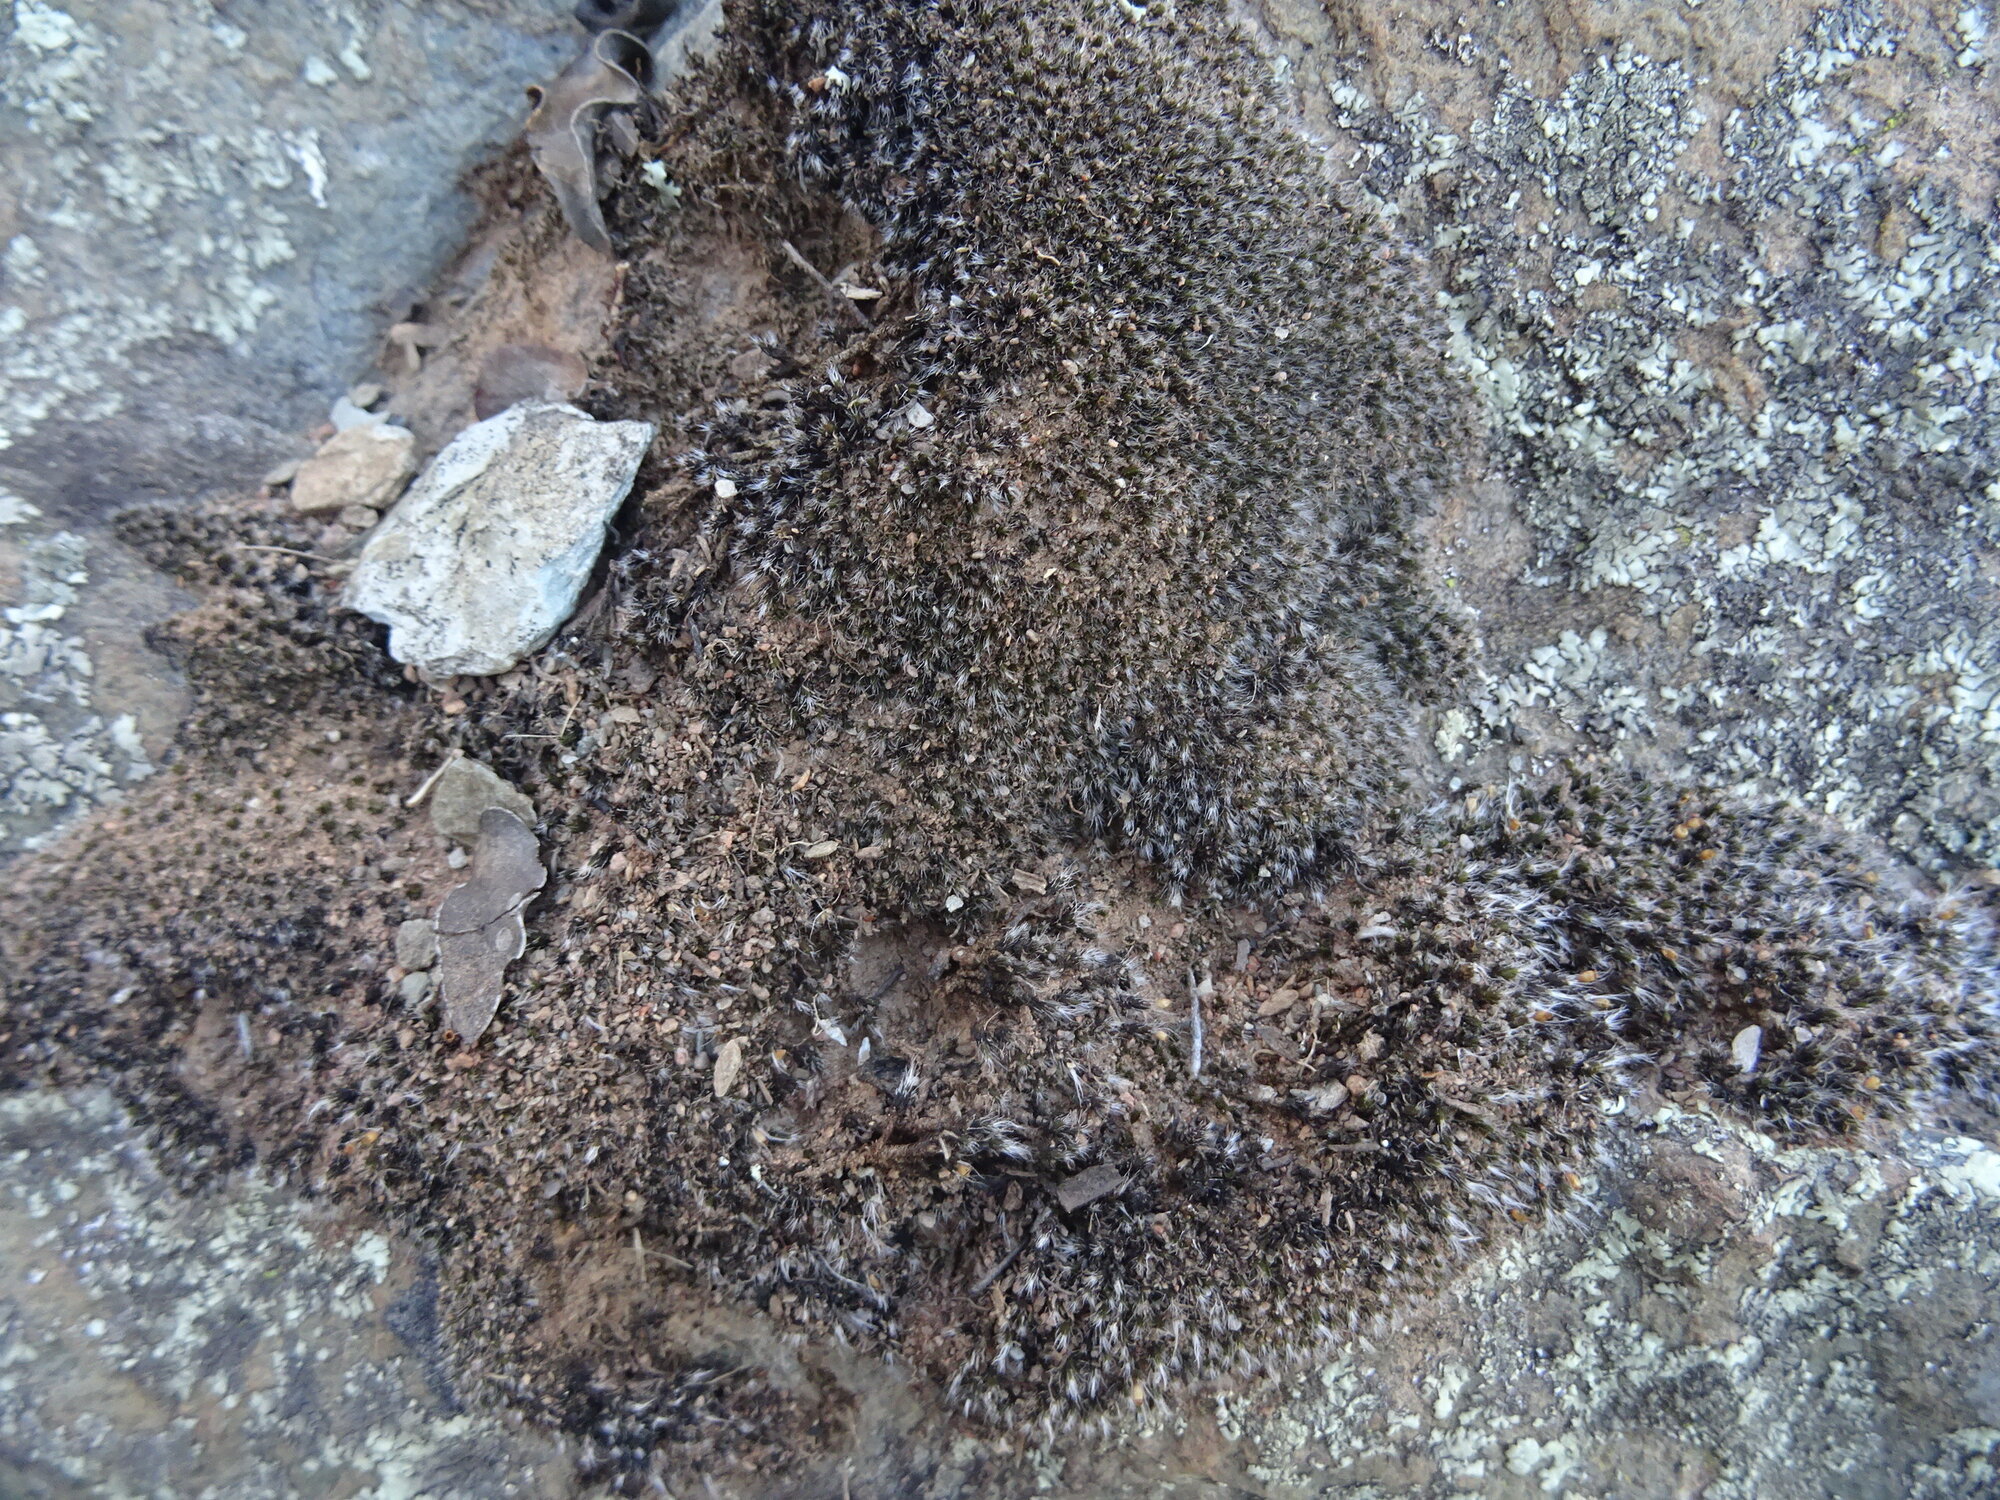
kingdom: Plantae
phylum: Bryophyta
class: Bryopsida
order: Grimmiales
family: Grimmiaceae
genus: Grimmia
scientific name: Grimmia laevigata
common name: Hoary grimmia
